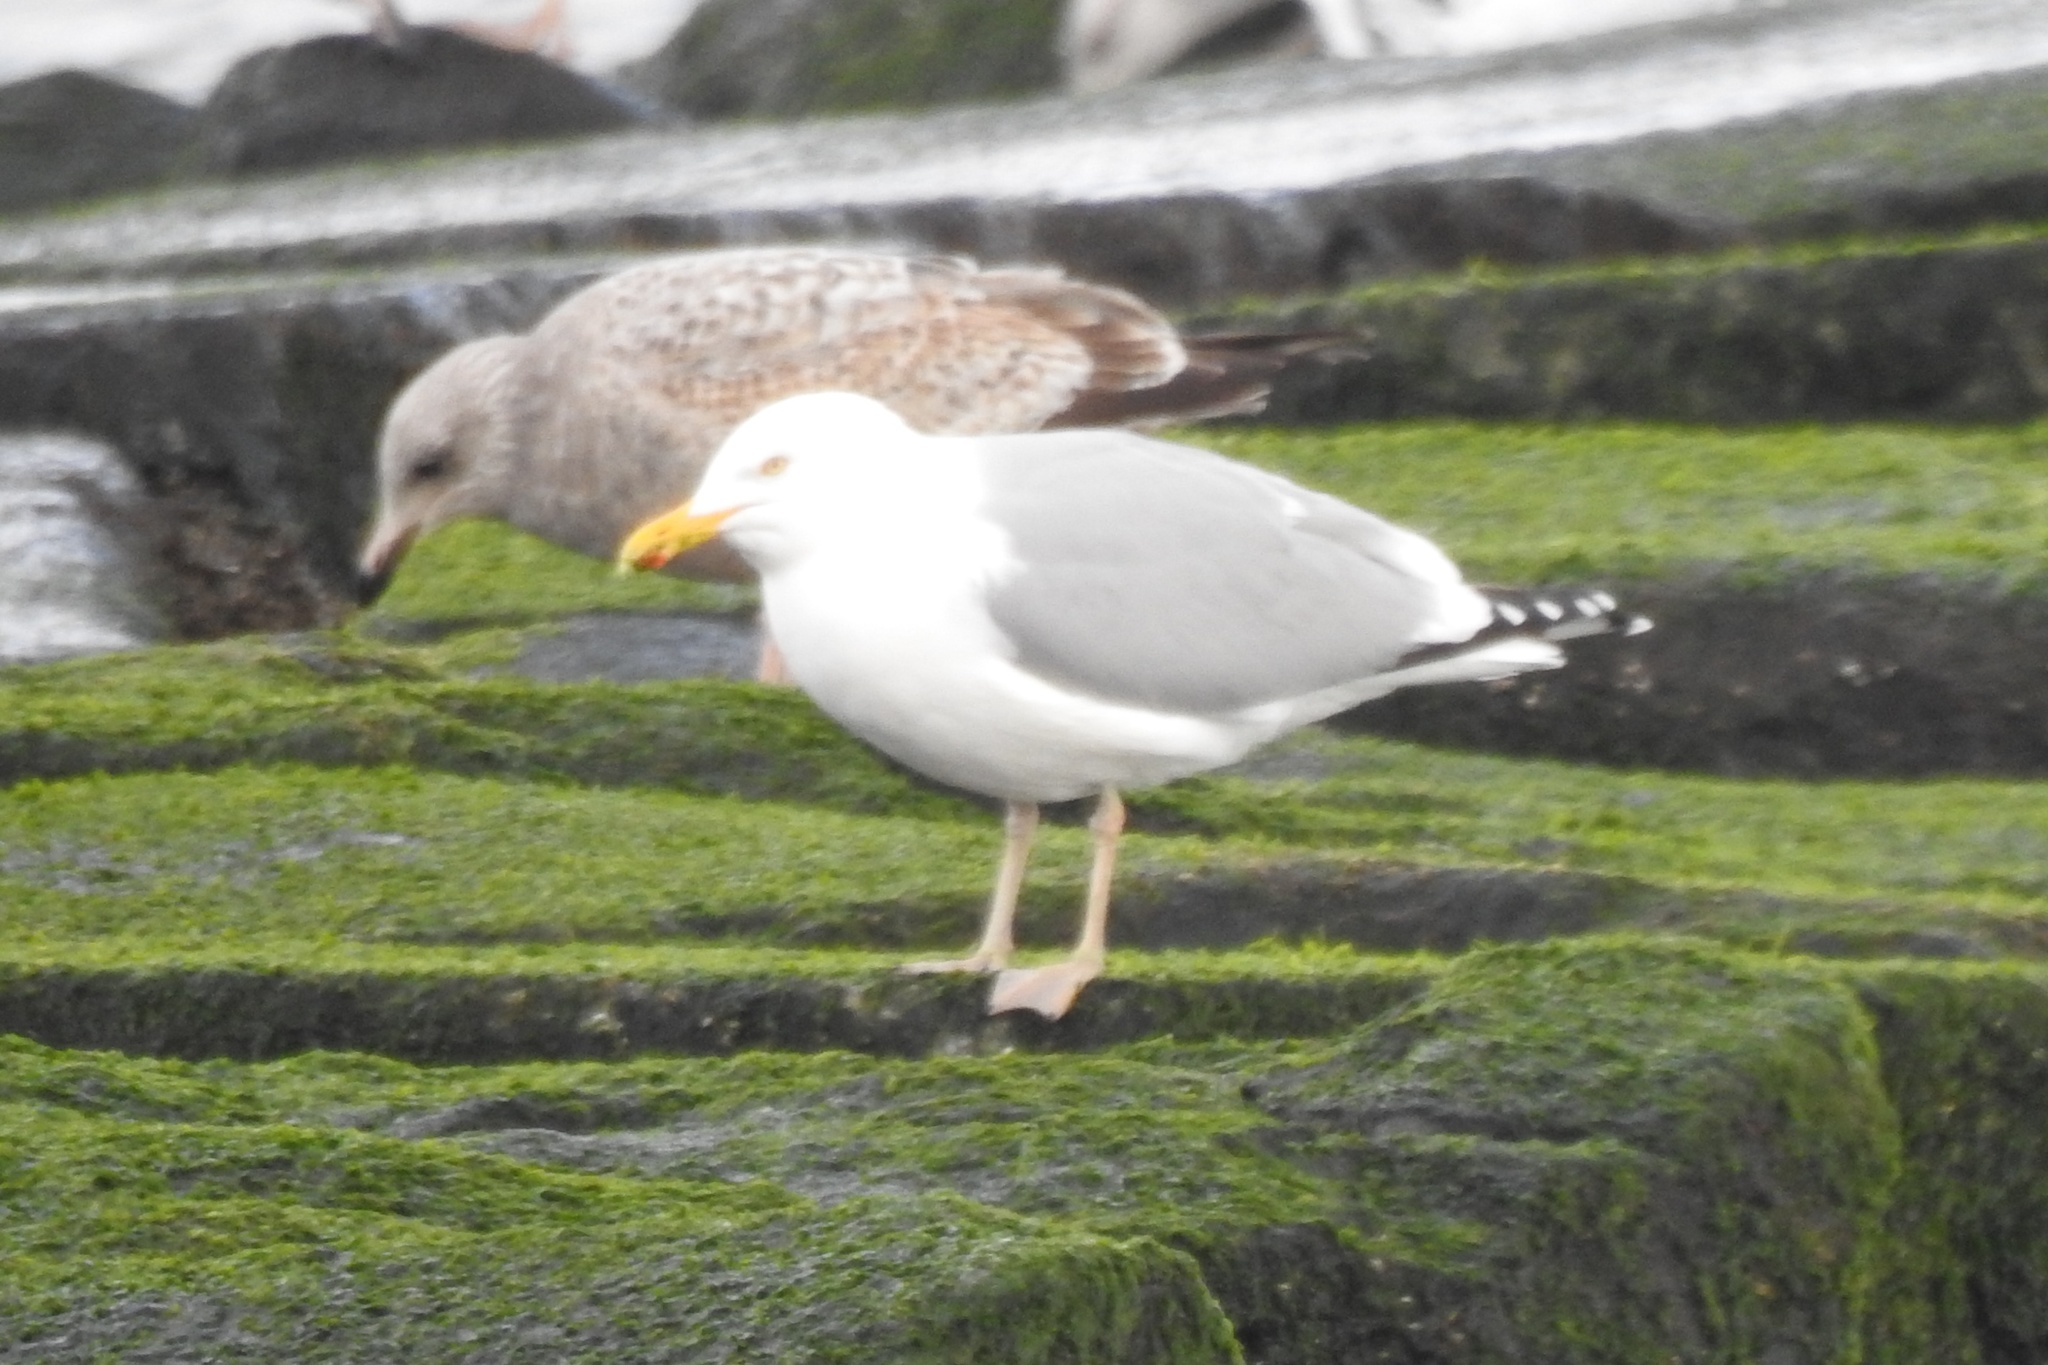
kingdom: Animalia
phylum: Chordata
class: Aves
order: Charadriiformes
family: Laridae
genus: Larus
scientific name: Larus argentatus
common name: Herring gull
